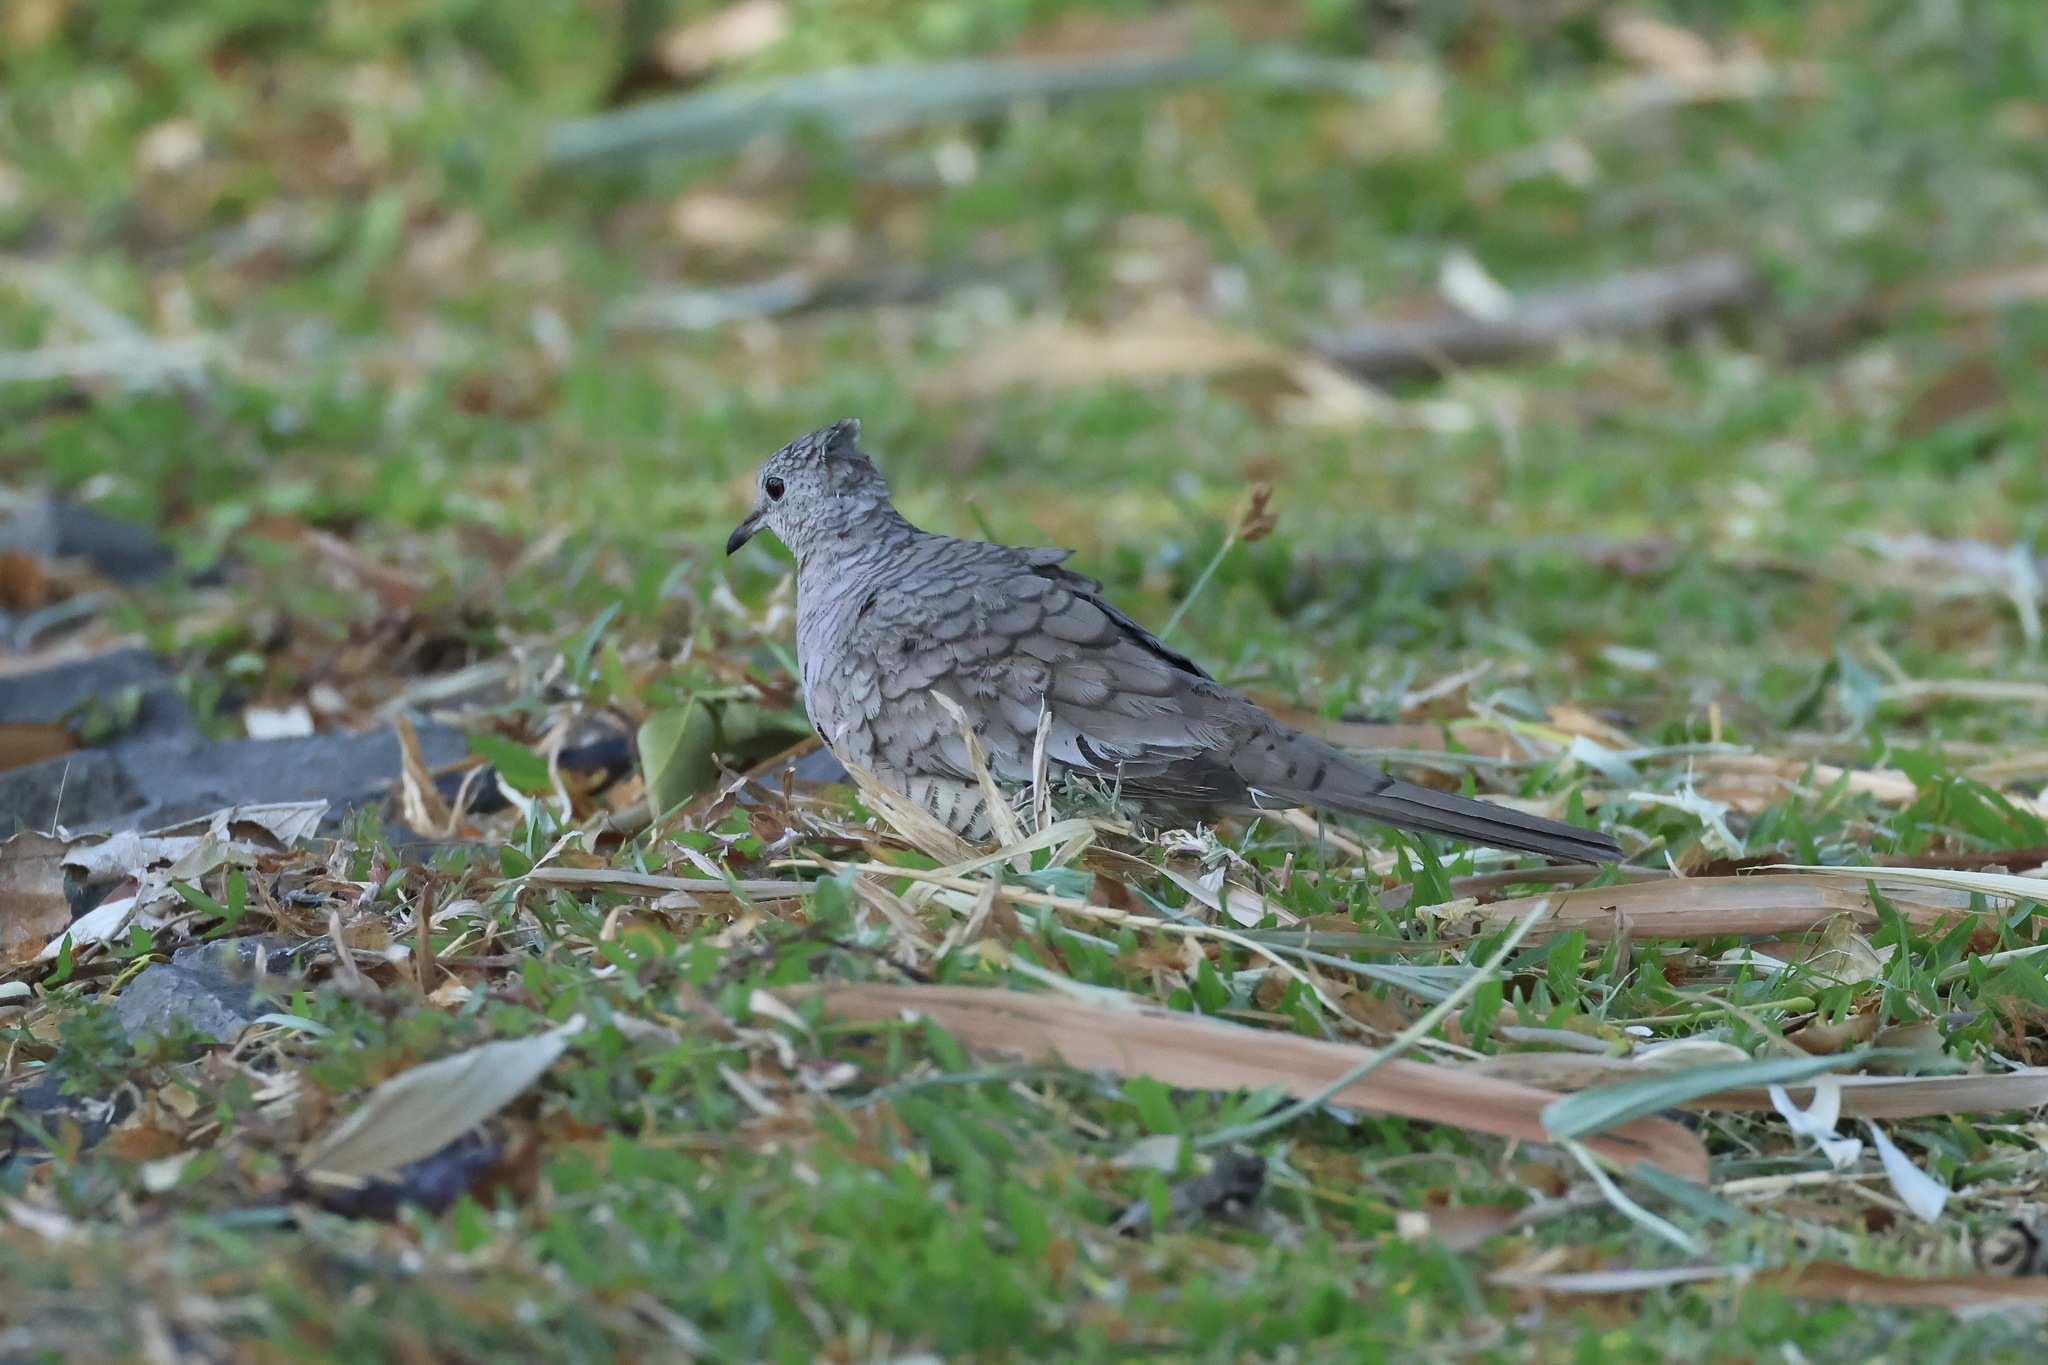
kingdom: Animalia
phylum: Chordata
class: Aves
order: Columbiformes
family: Columbidae
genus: Columbina
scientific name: Columbina inca
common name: Inca dove
